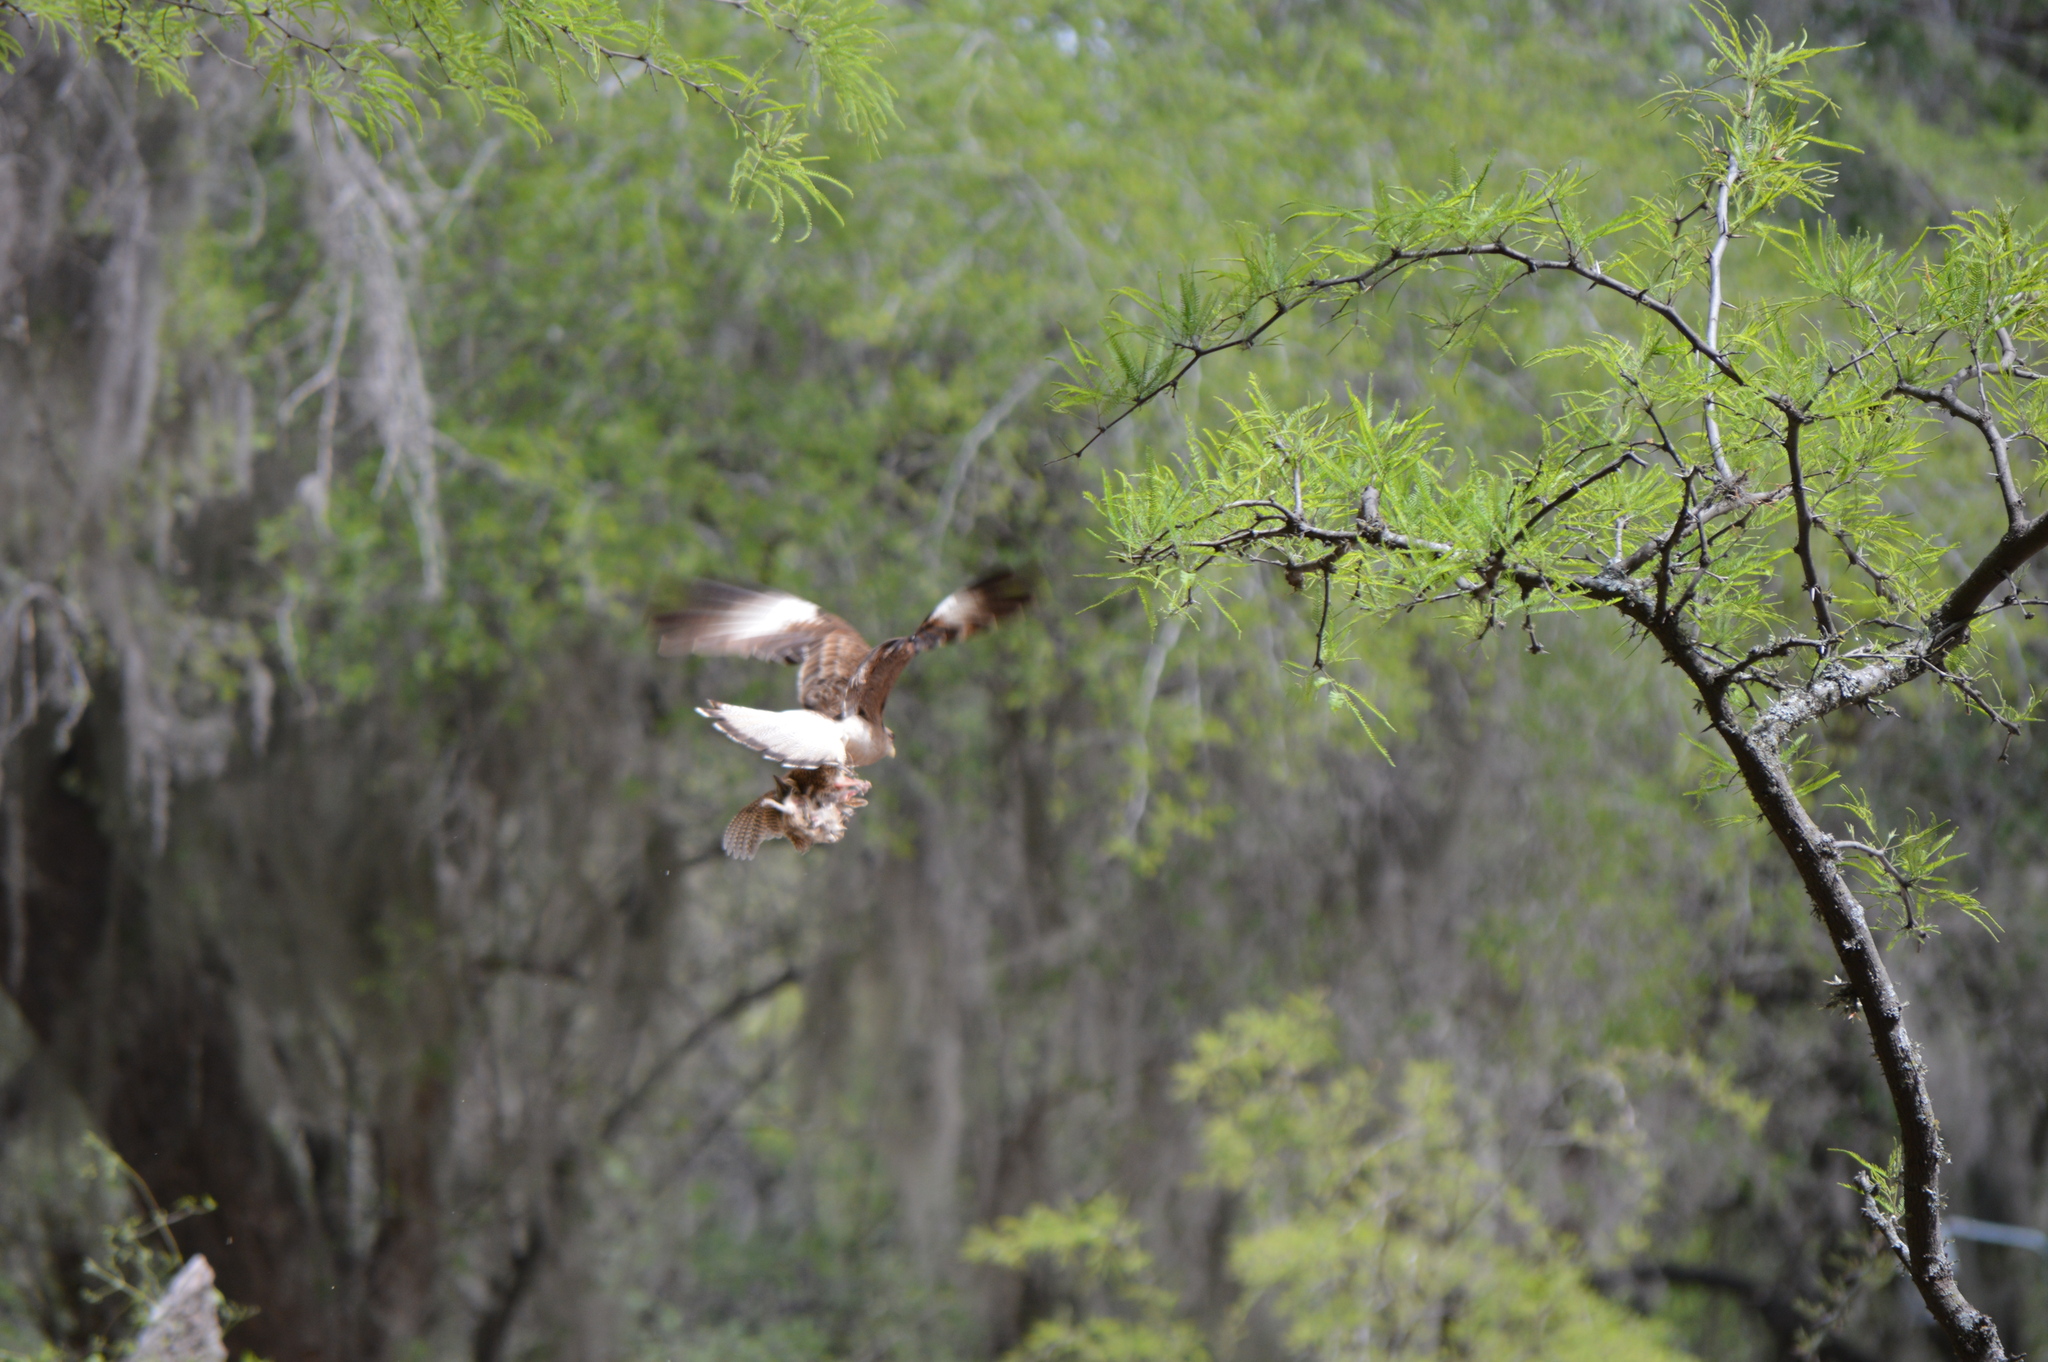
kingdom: Animalia
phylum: Chordata
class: Aves
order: Falconiformes
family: Falconidae
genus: Daptrius
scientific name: Daptrius
